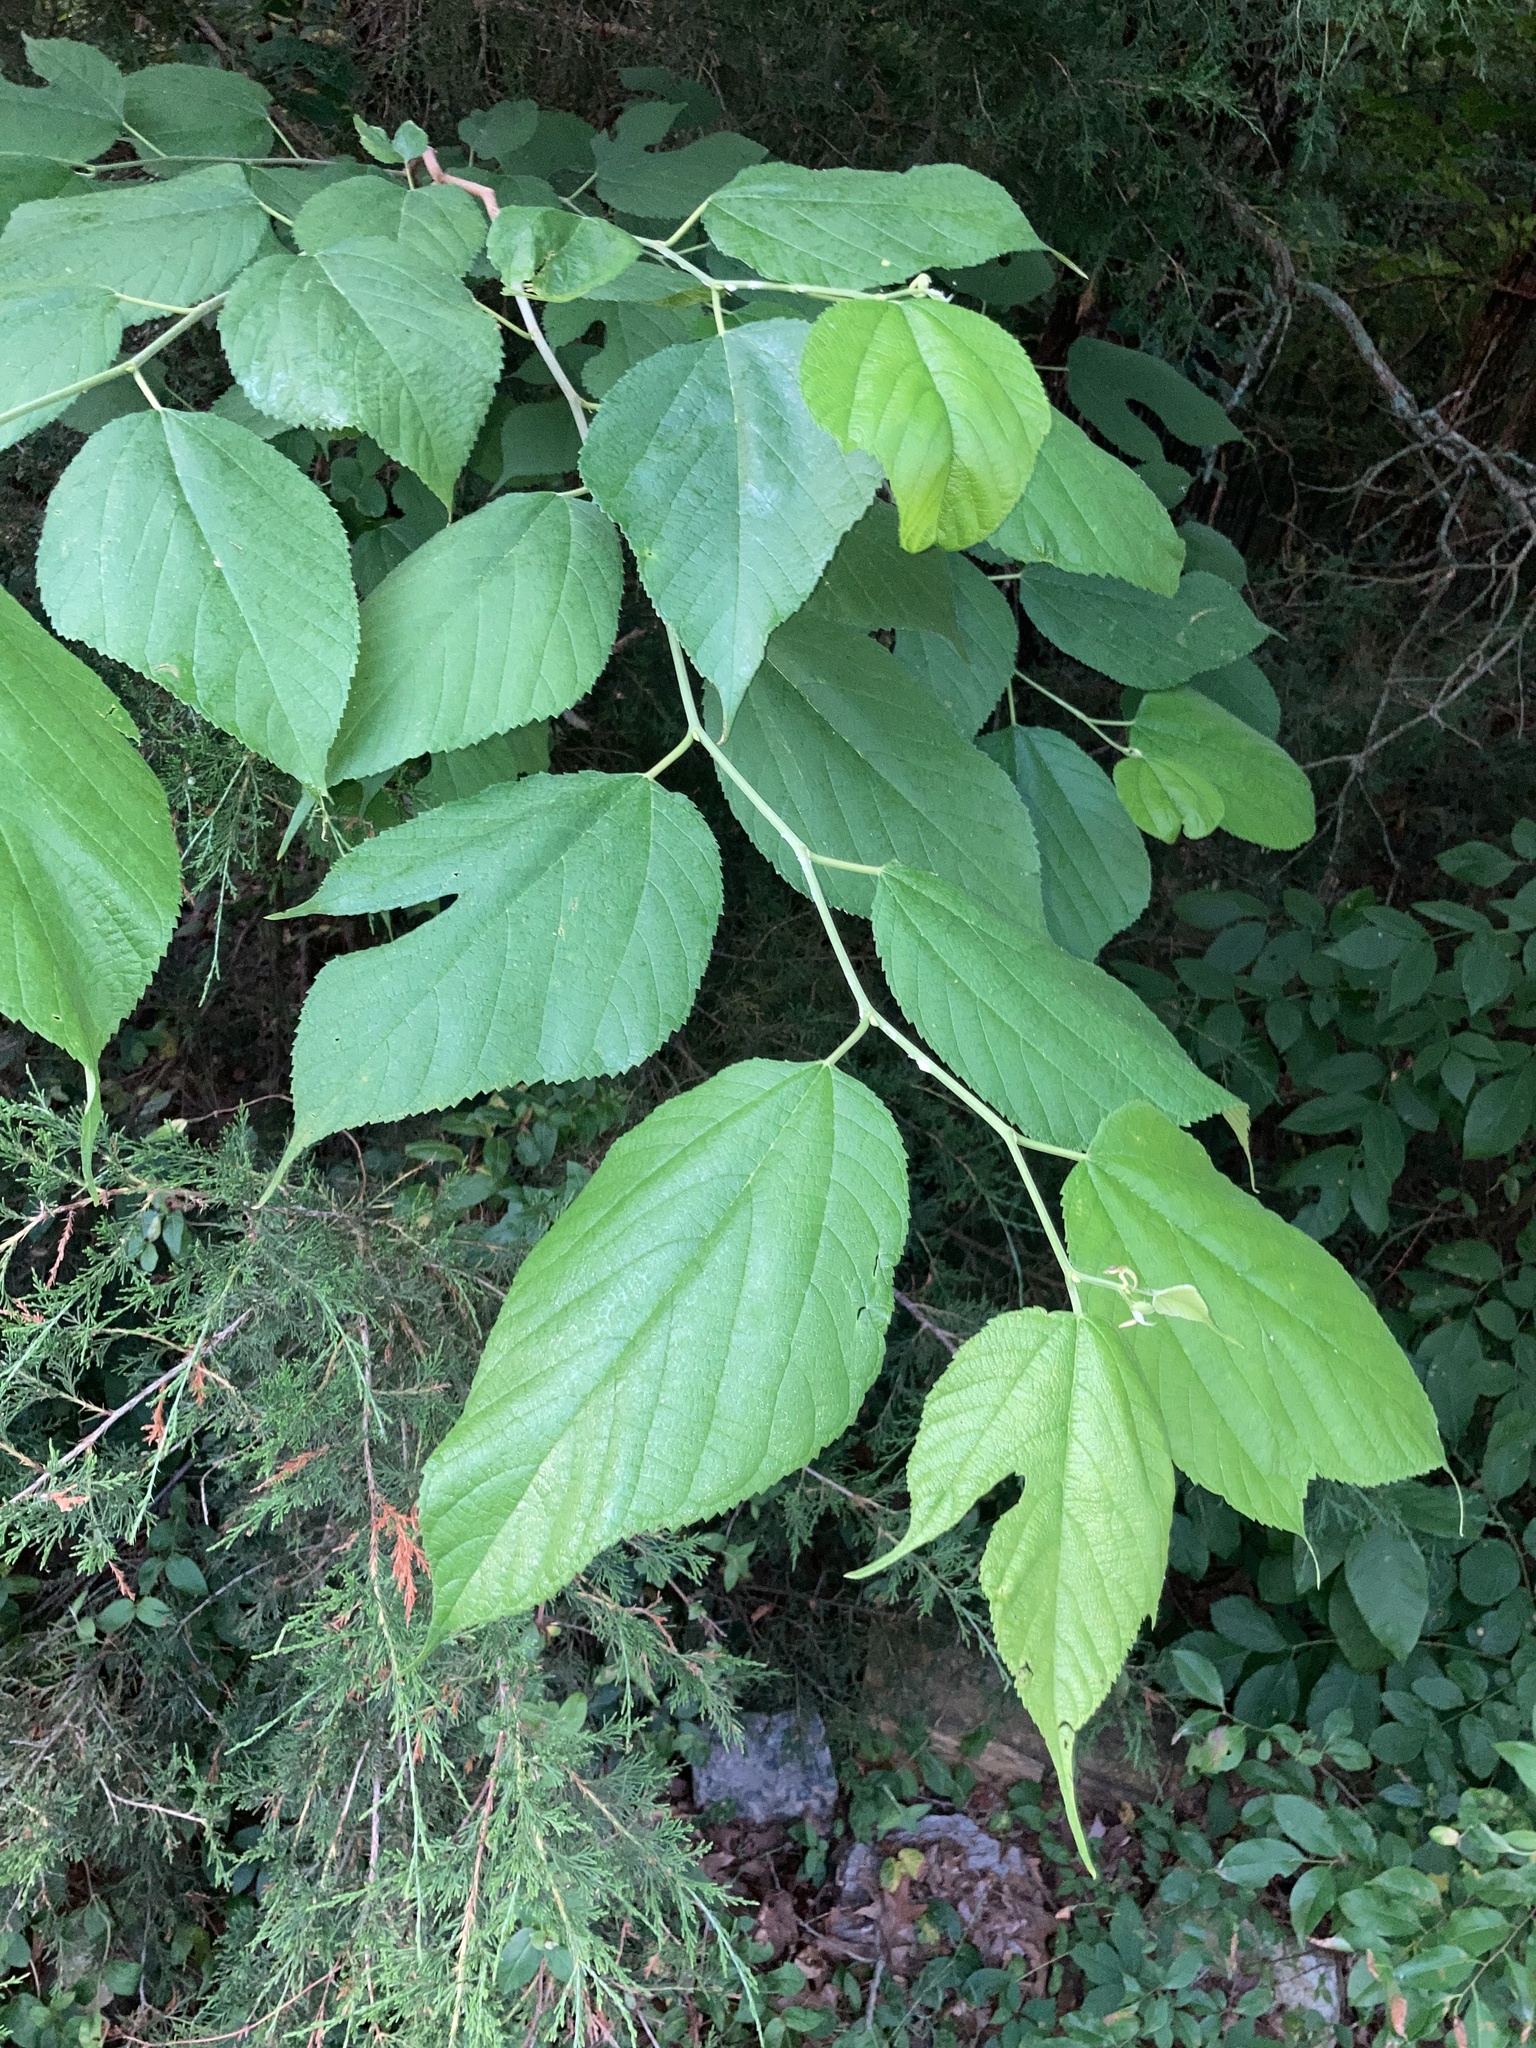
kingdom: Plantae
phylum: Tracheophyta
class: Magnoliopsida
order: Rosales
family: Moraceae
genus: Morus
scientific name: Morus rubra
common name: Red mulberry
